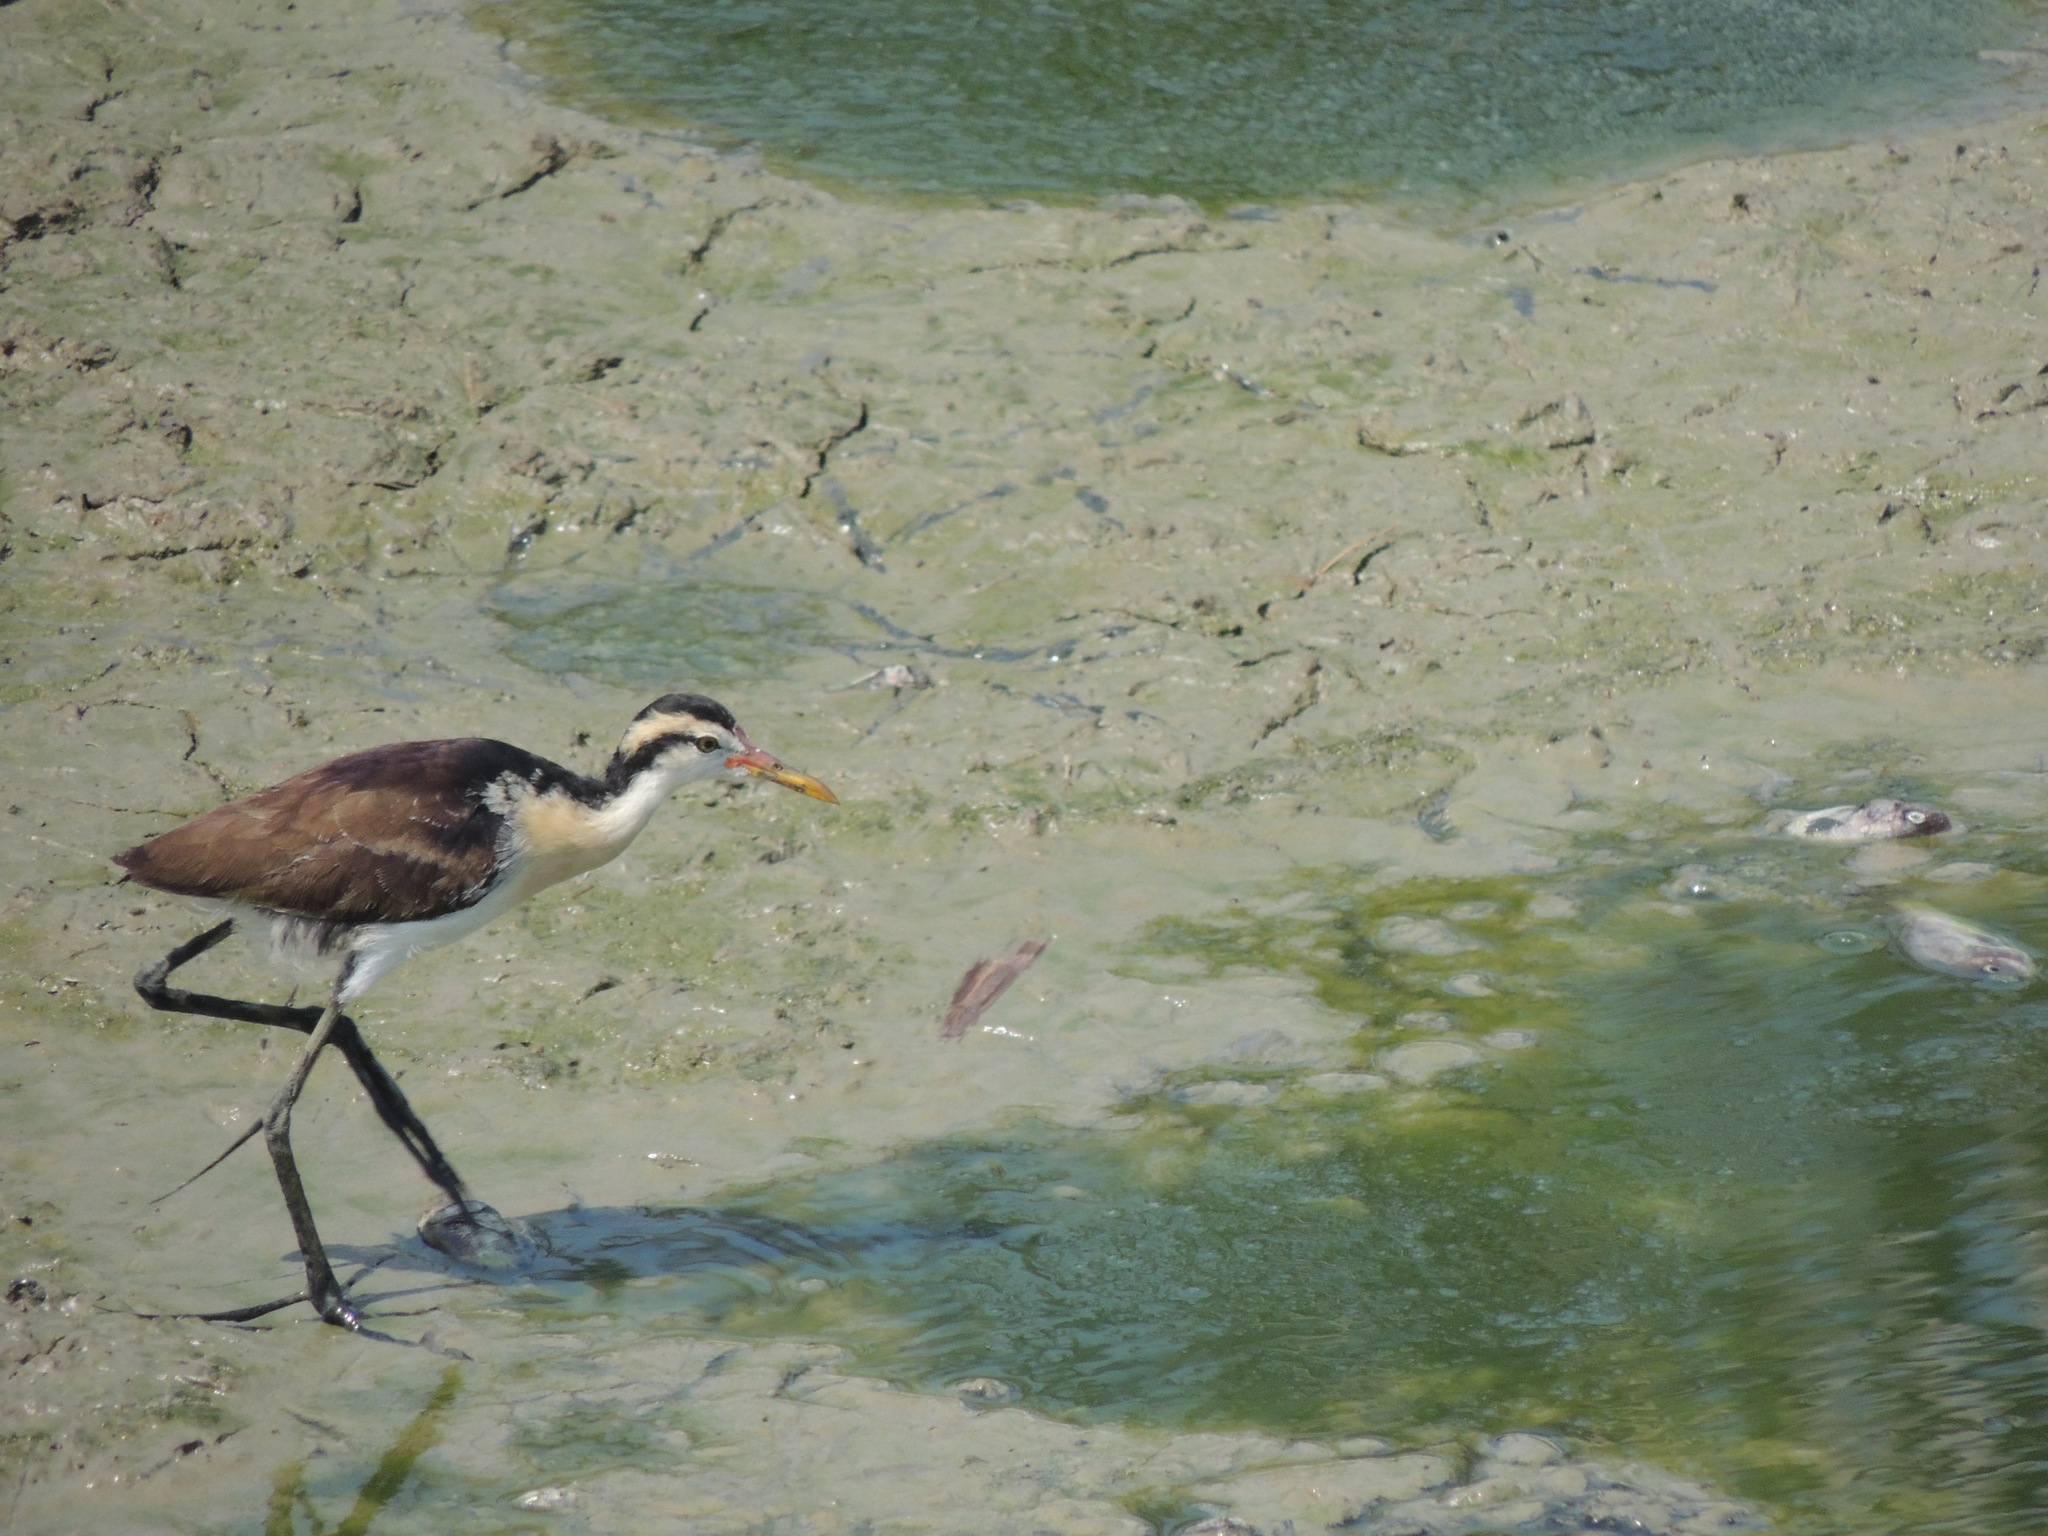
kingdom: Animalia
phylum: Chordata
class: Aves
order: Charadriiformes
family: Jacanidae
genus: Jacana
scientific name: Jacana jacana
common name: Wattled jacana
